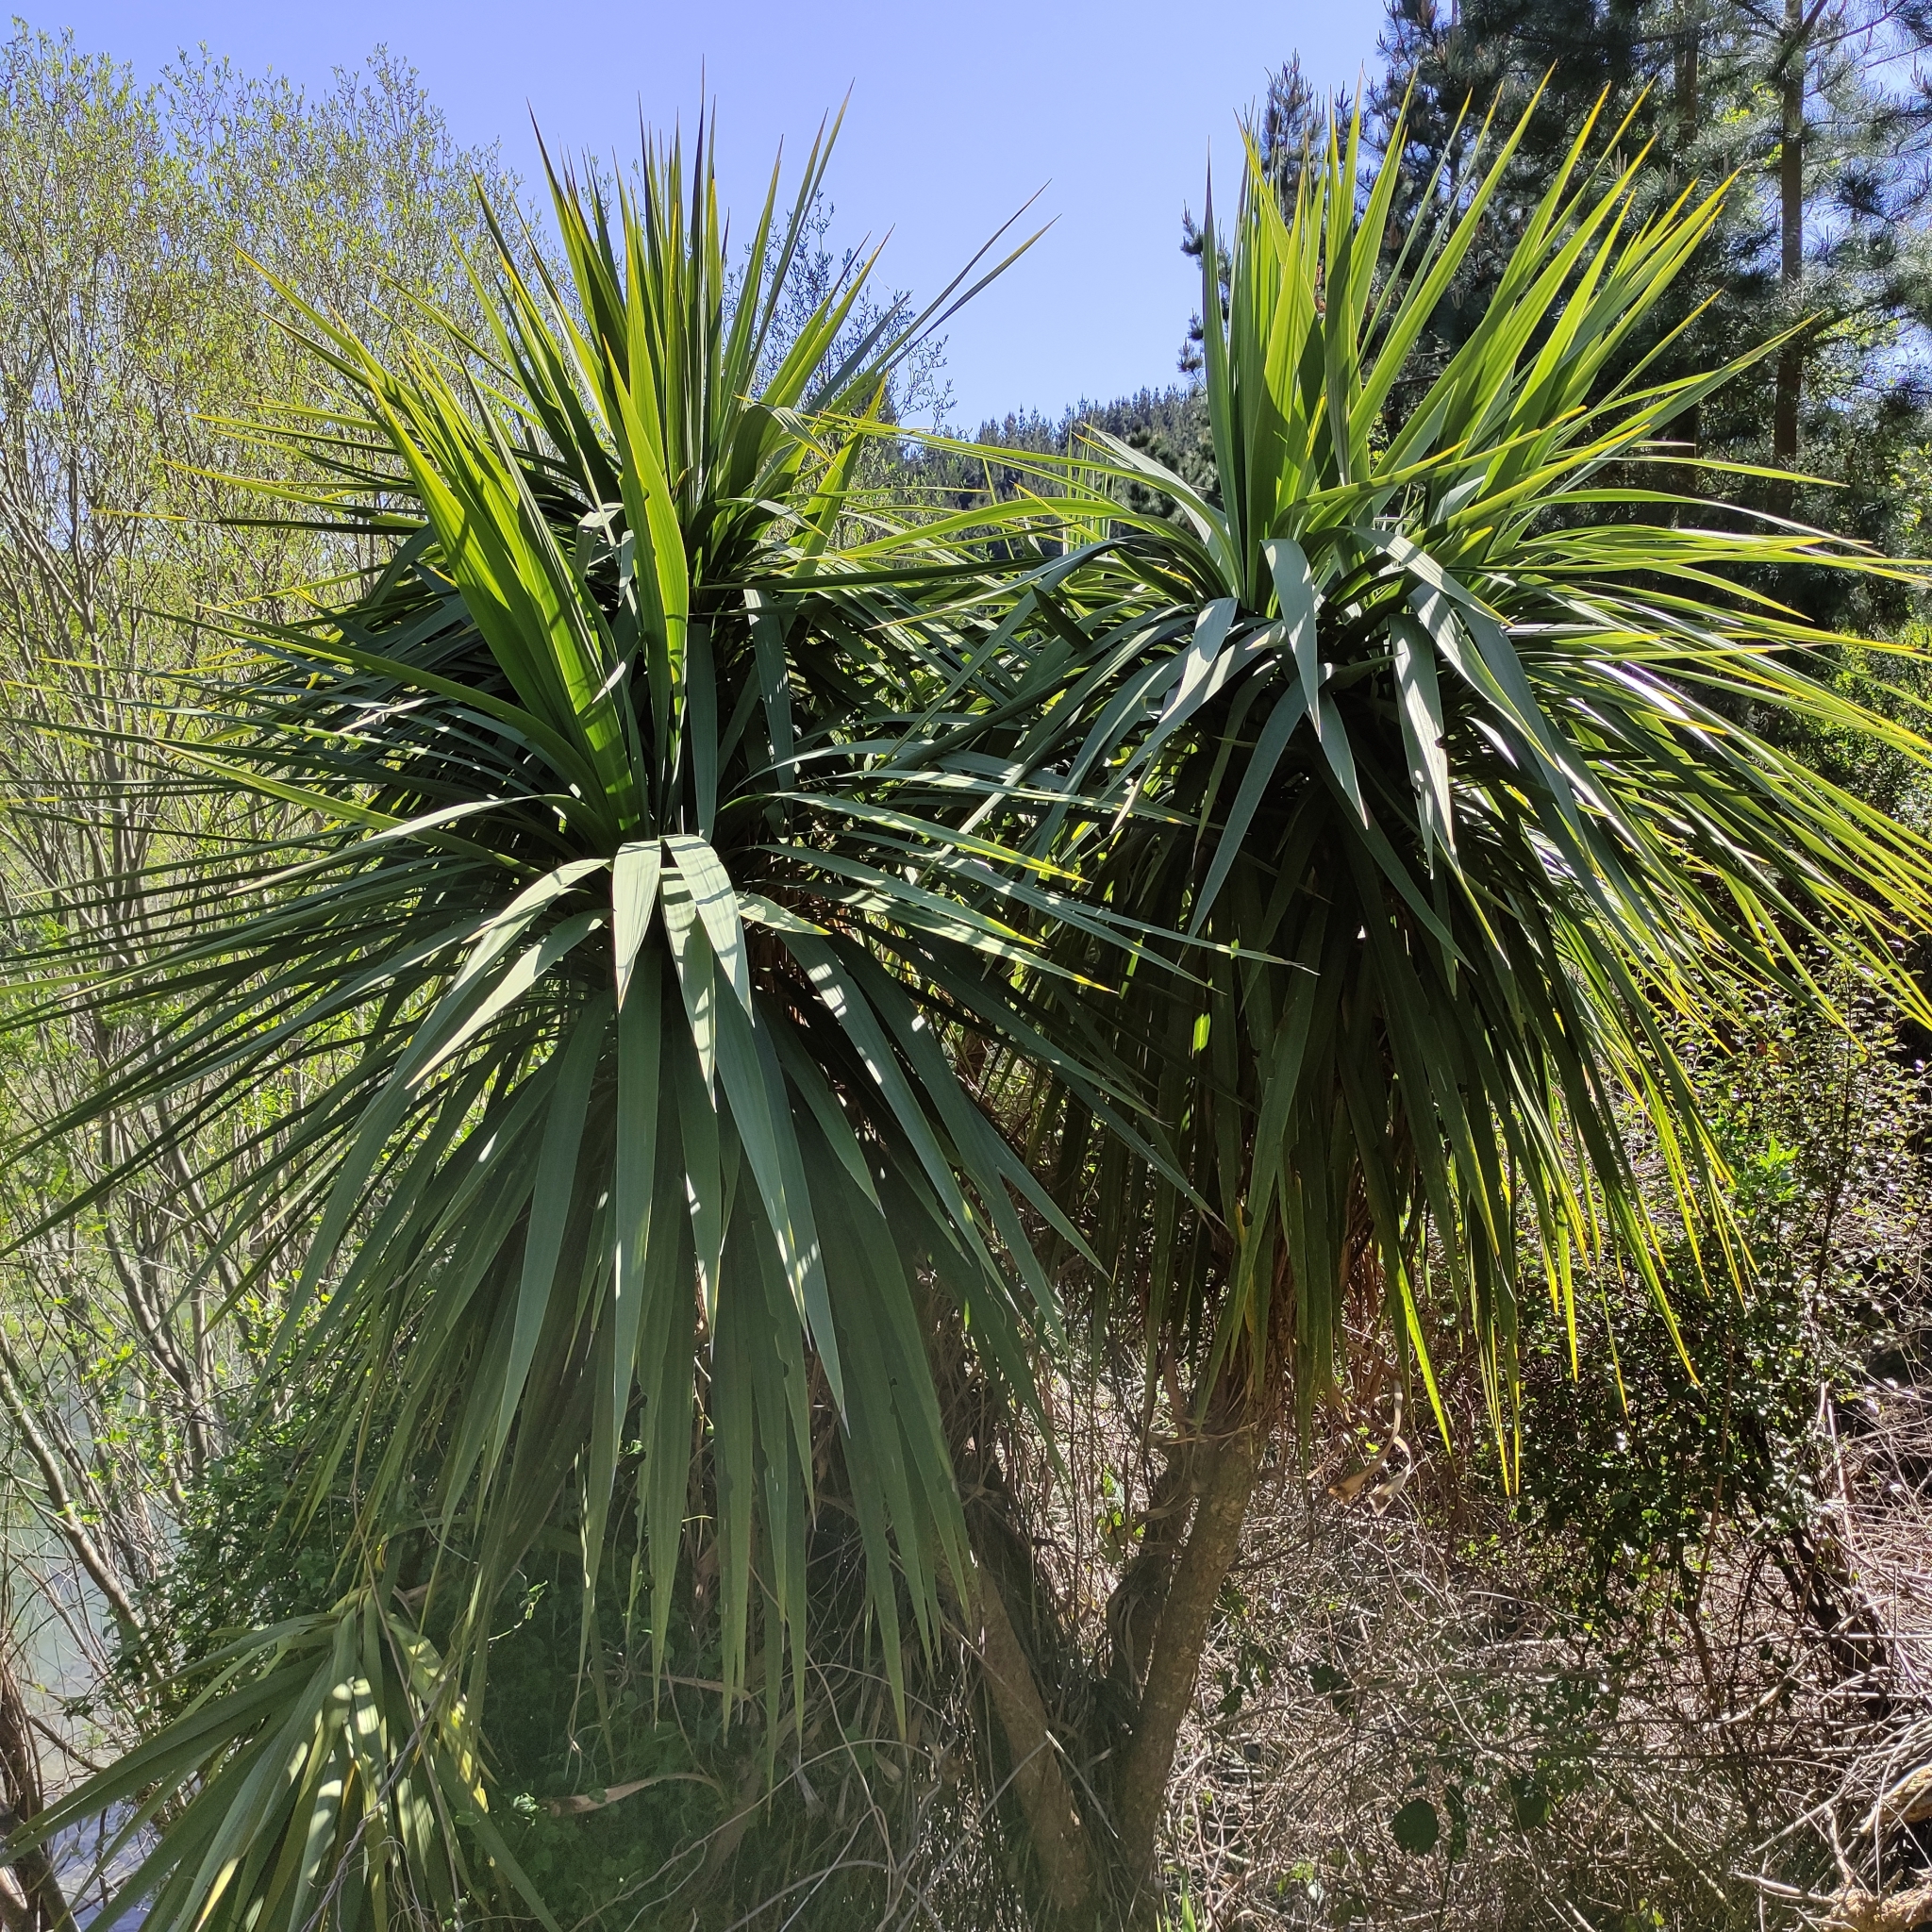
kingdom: Plantae
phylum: Tracheophyta
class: Liliopsida
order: Asparagales
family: Asparagaceae
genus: Cordyline
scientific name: Cordyline australis
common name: Cabbage-palm
